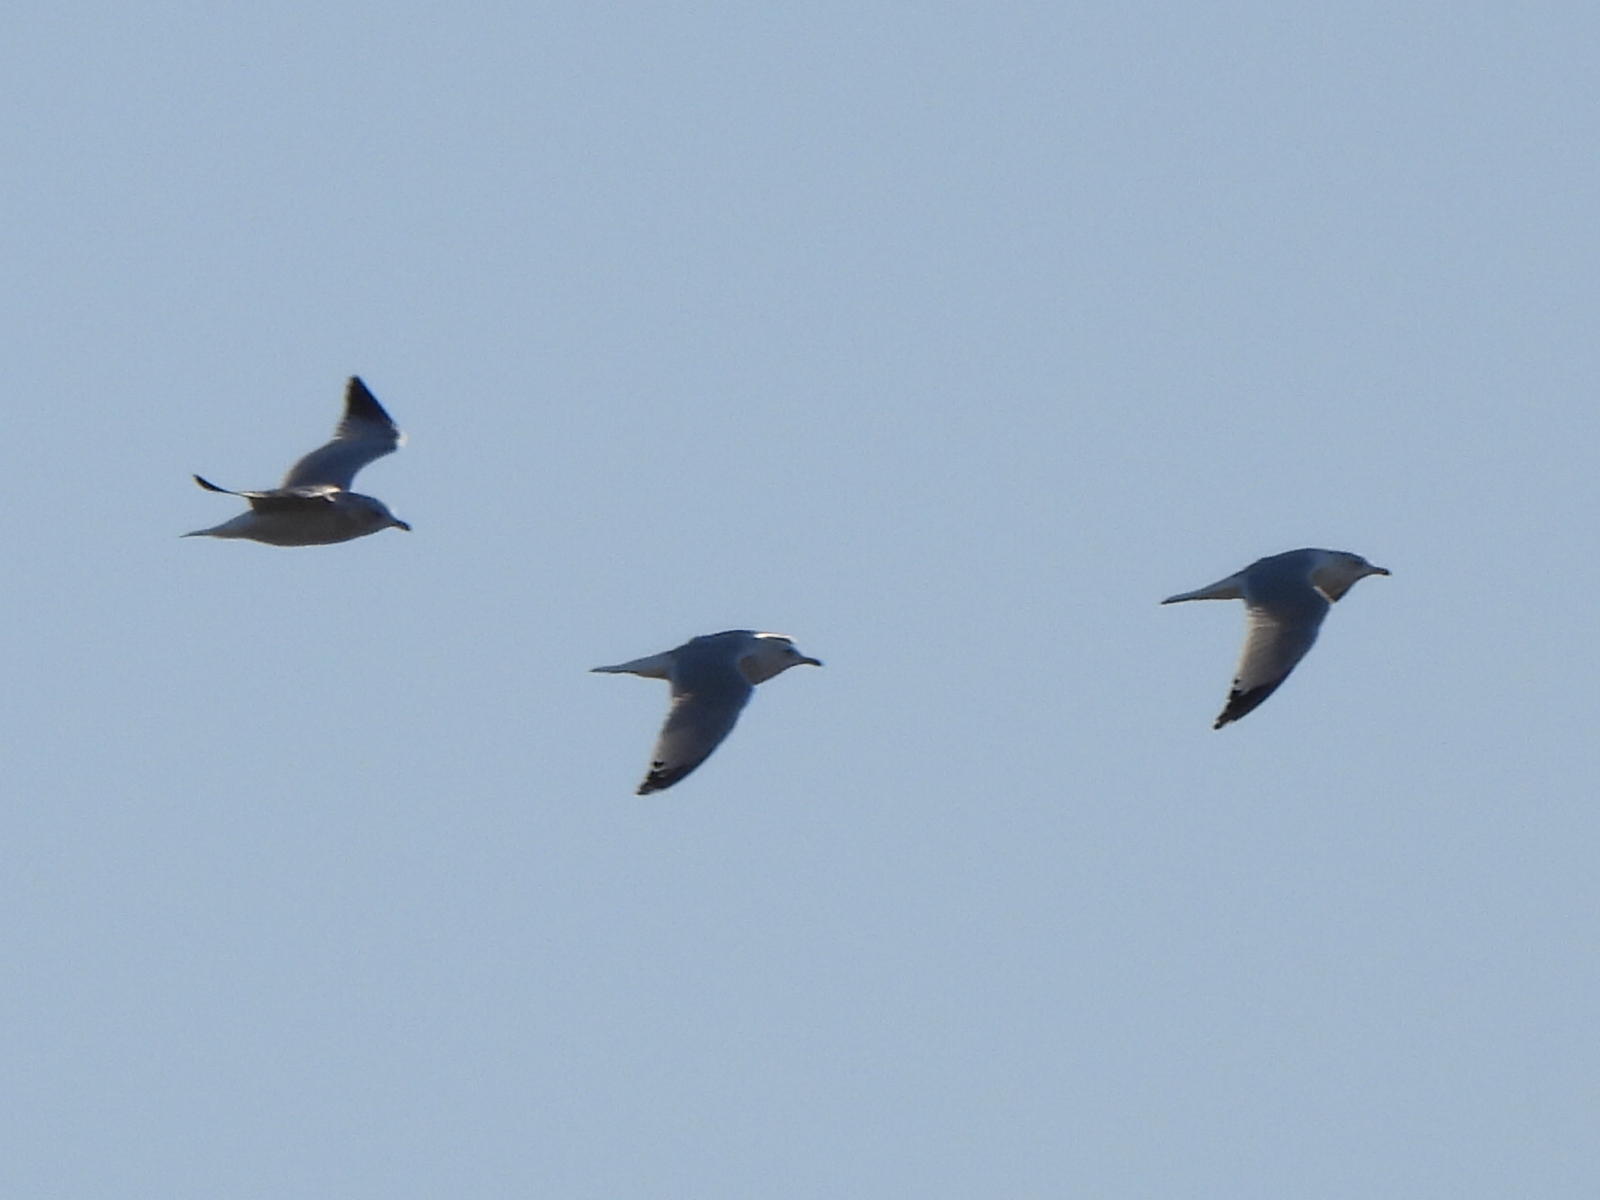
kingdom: Animalia
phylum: Chordata
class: Aves
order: Charadriiformes
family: Laridae
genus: Larus
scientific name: Larus delawarensis
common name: Ring-billed gull
